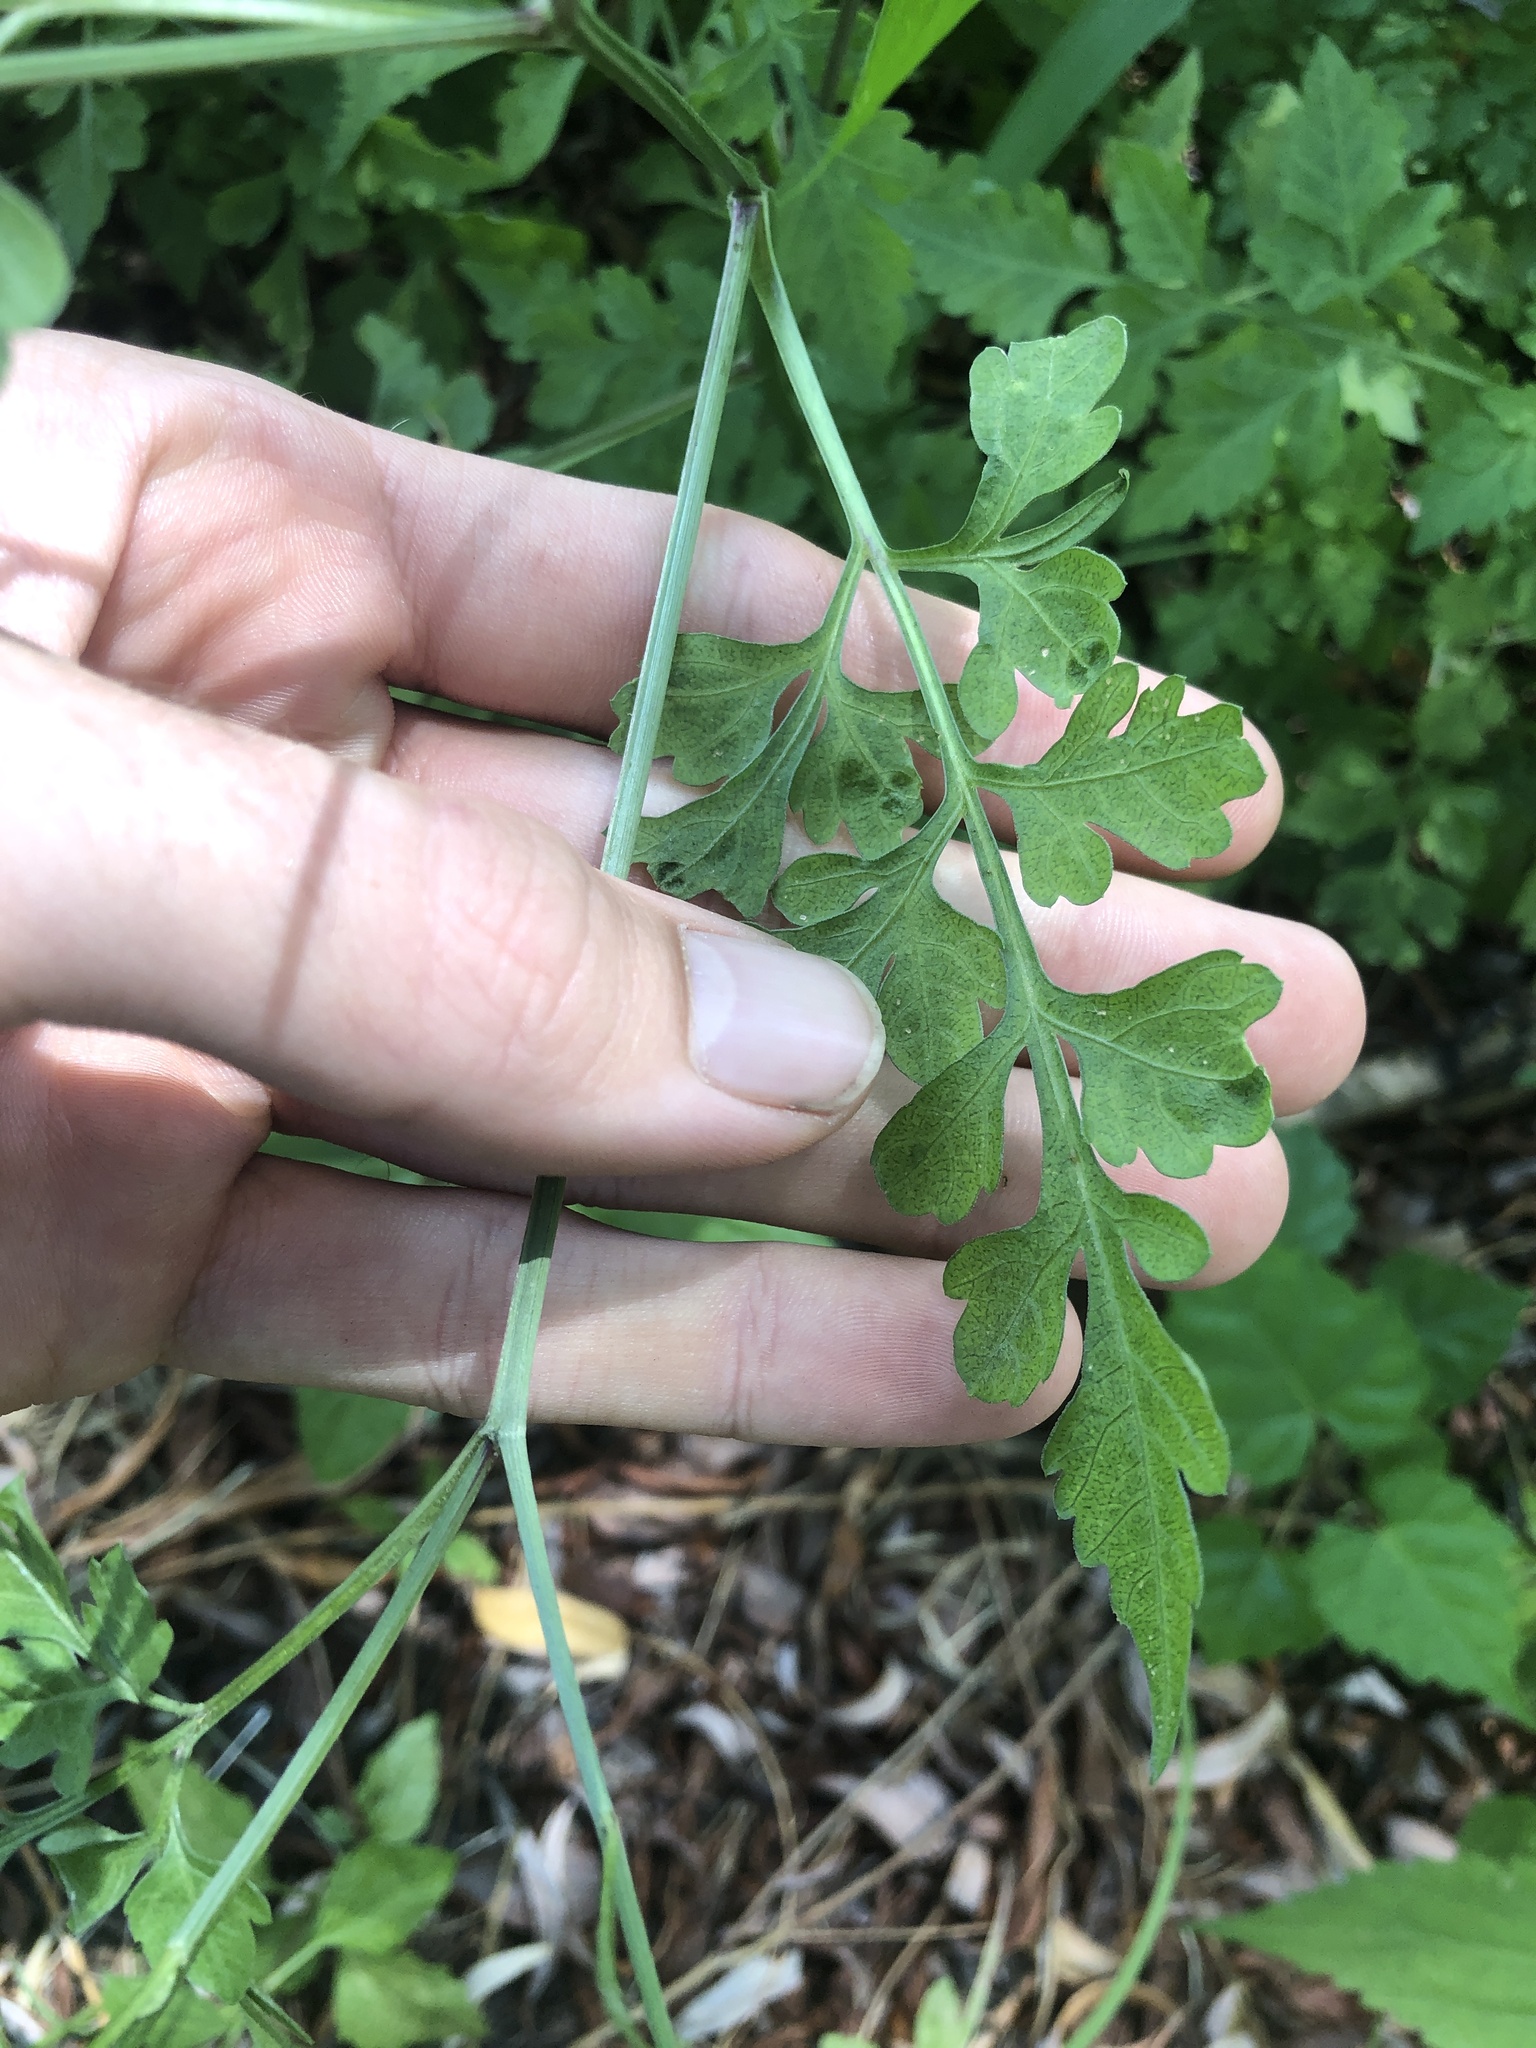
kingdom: Plantae
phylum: Tracheophyta
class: Magnoliopsida
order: Asterales
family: Asteraceae
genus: Bidens
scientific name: Bidens bipinnata
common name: Spanish-needles
